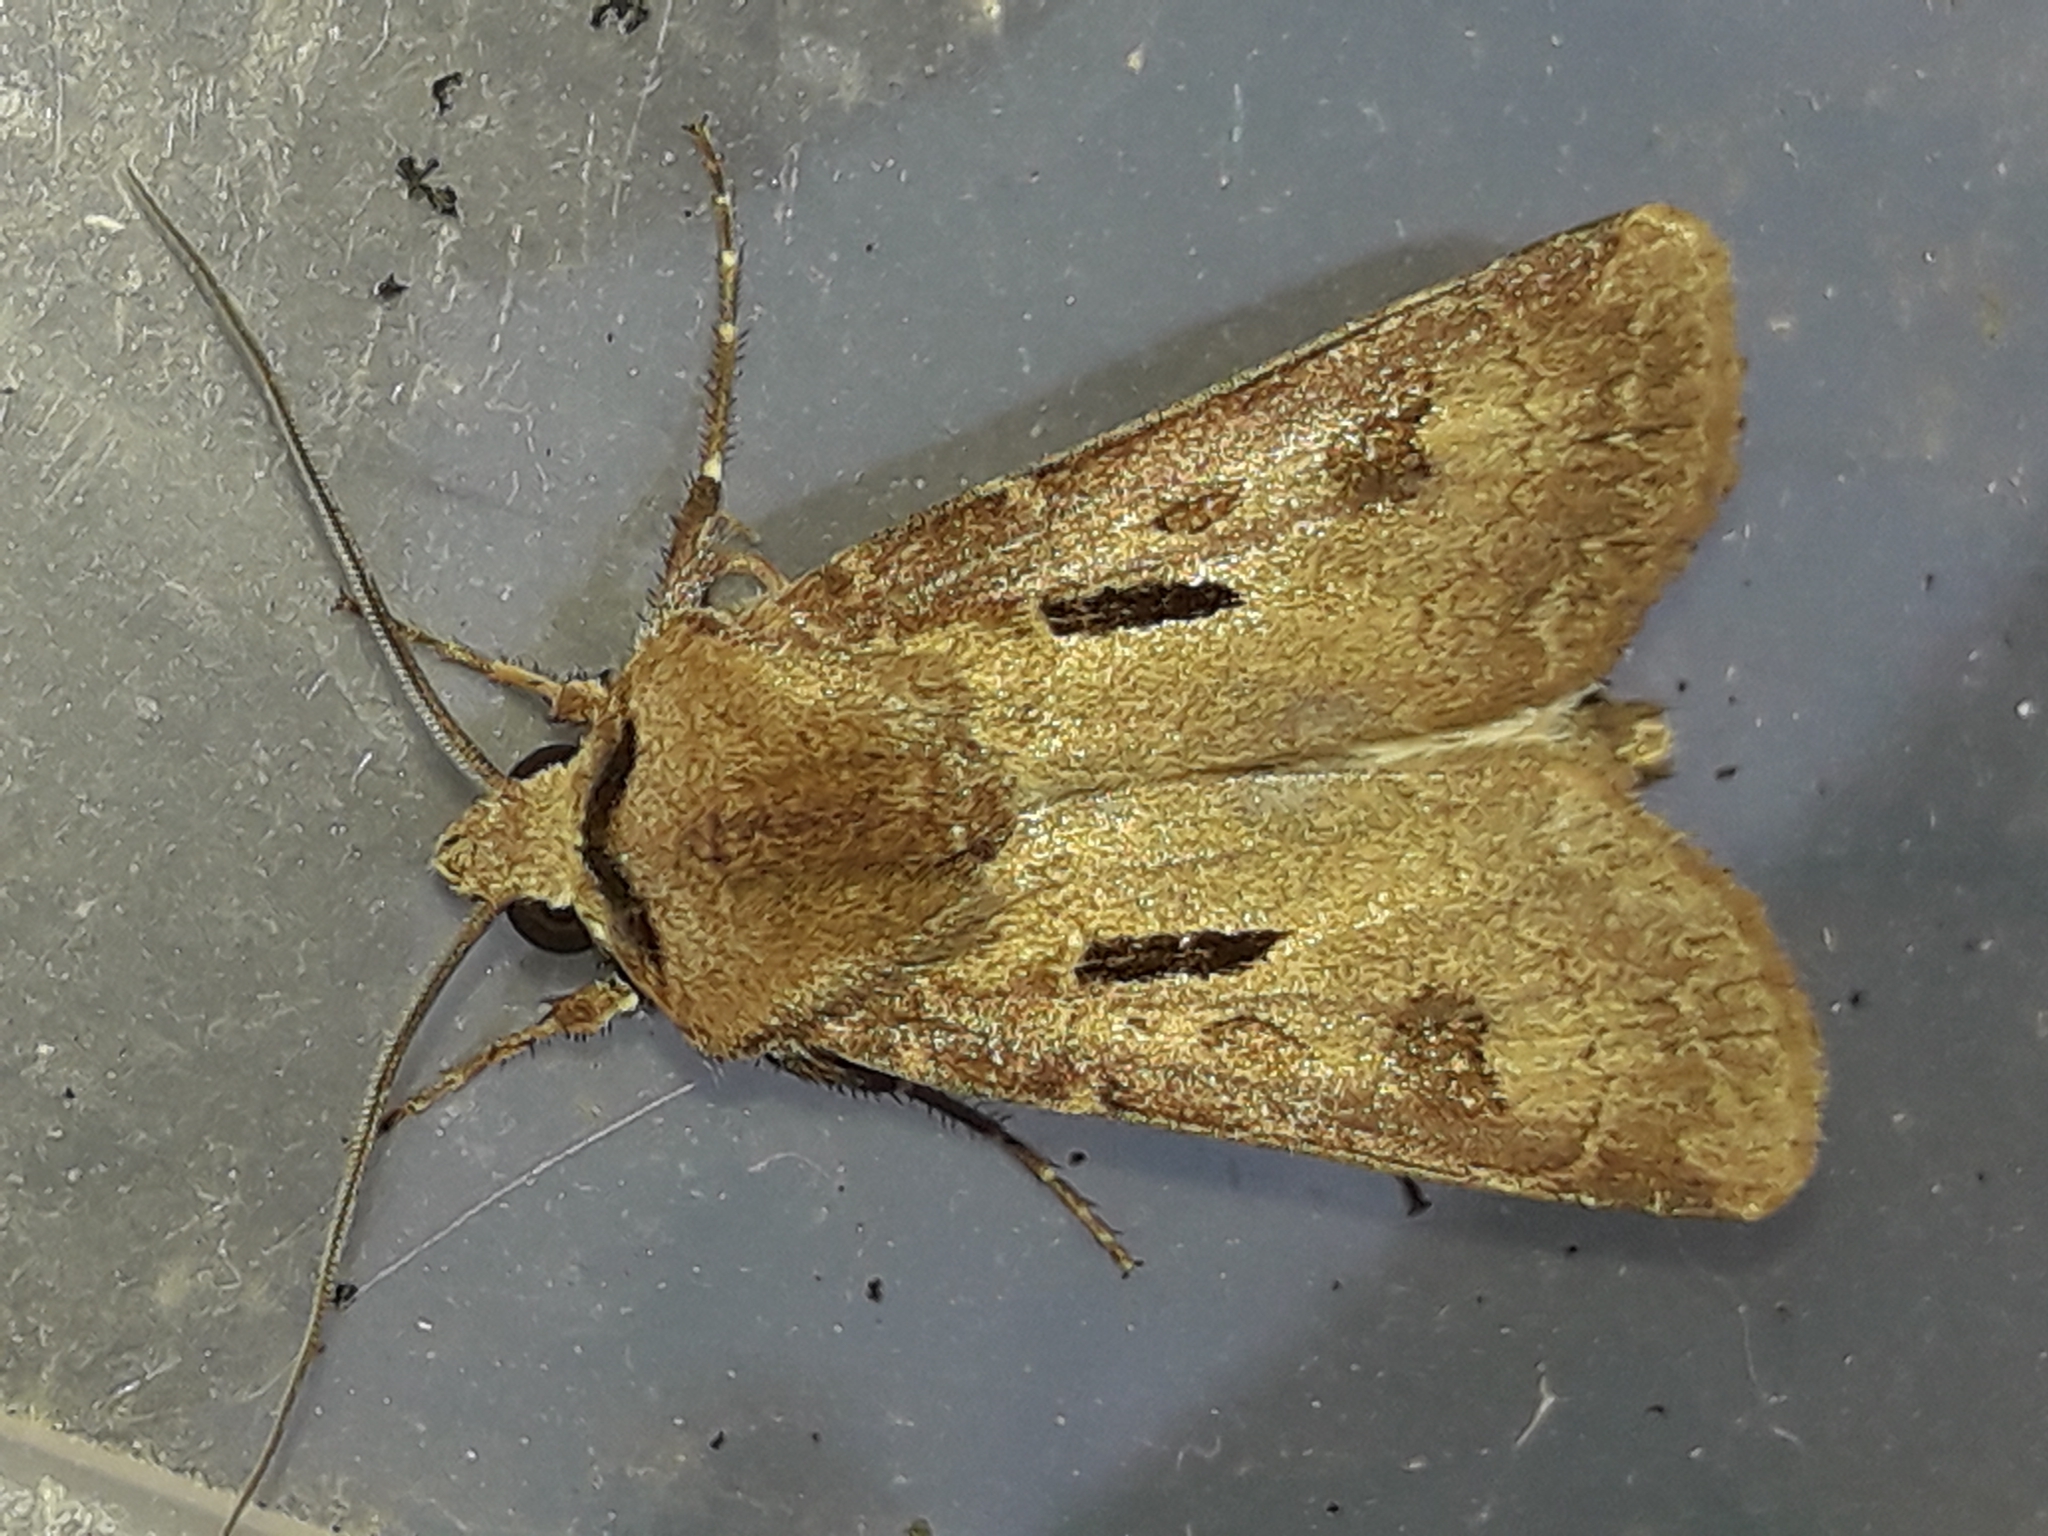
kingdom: Animalia
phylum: Arthropoda
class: Insecta
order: Lepidoptera
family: Noctuidae
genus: Agrotis
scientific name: Agrotis exclamationis
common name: Heart and dart
